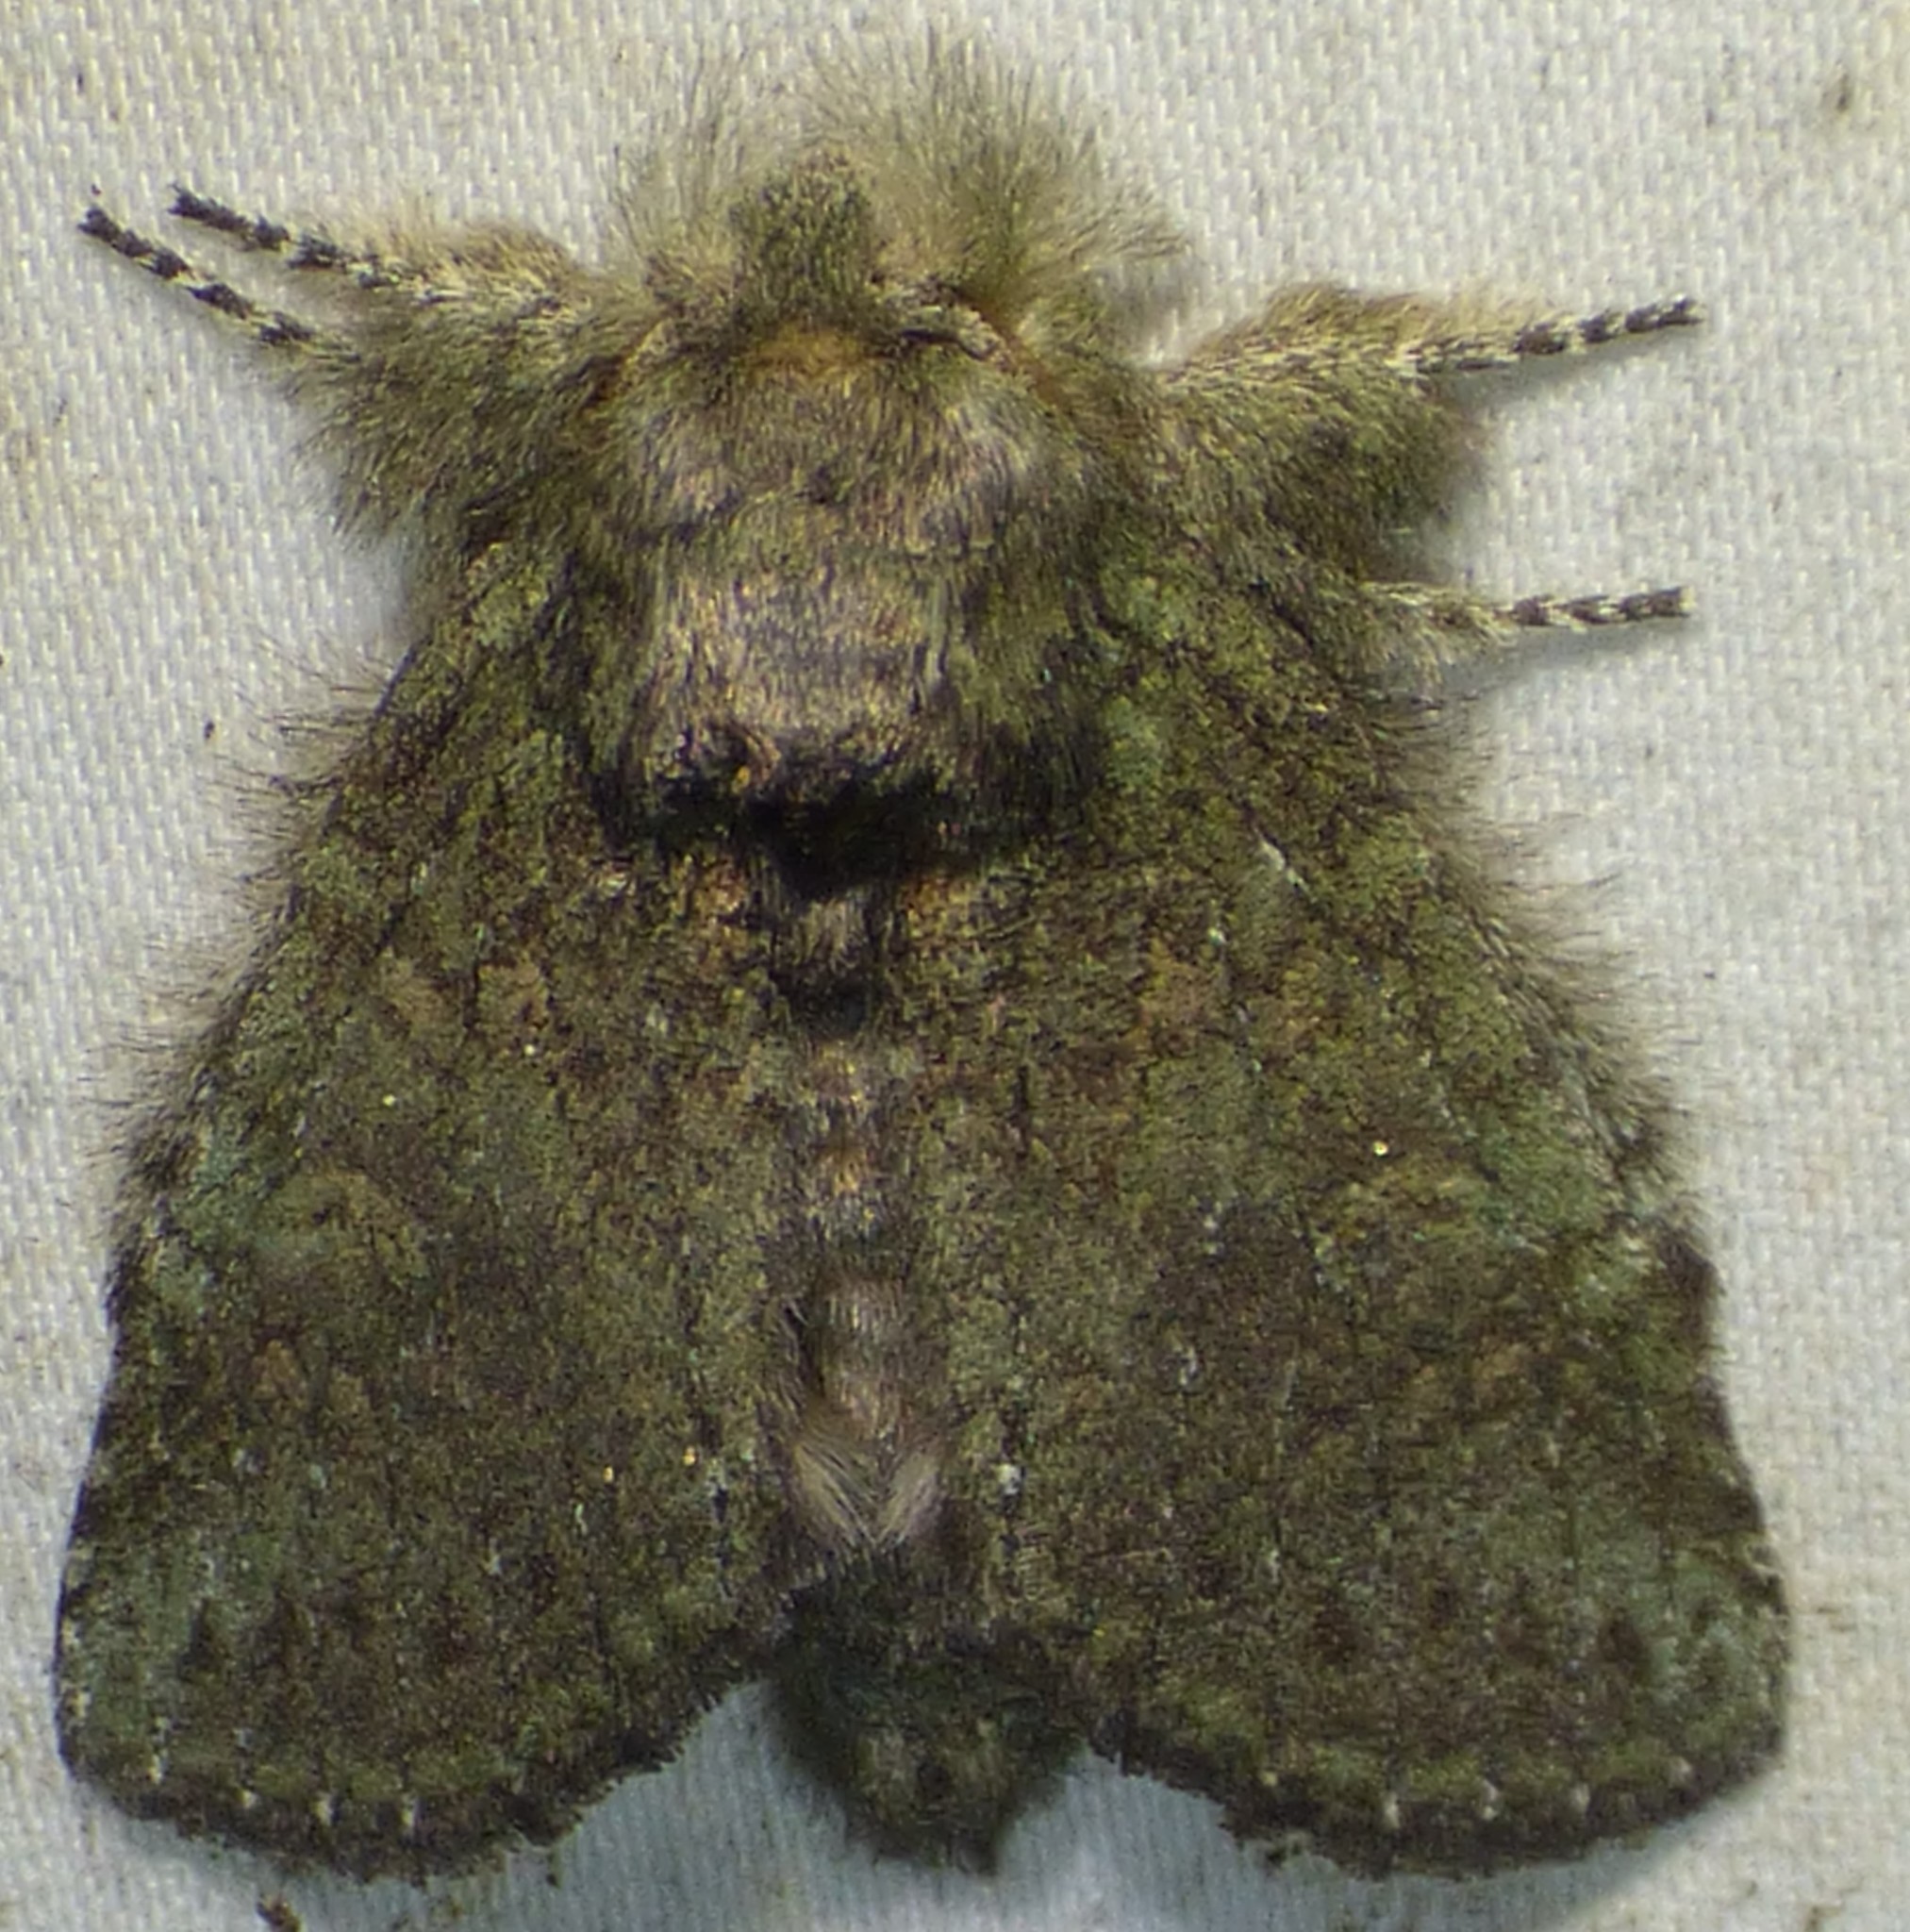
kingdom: Animalia
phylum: Arthropoda
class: Insecta
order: Lepidoptera
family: Notodontidae
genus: Disphragis
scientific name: Disphragis Cecrita guttivitta
